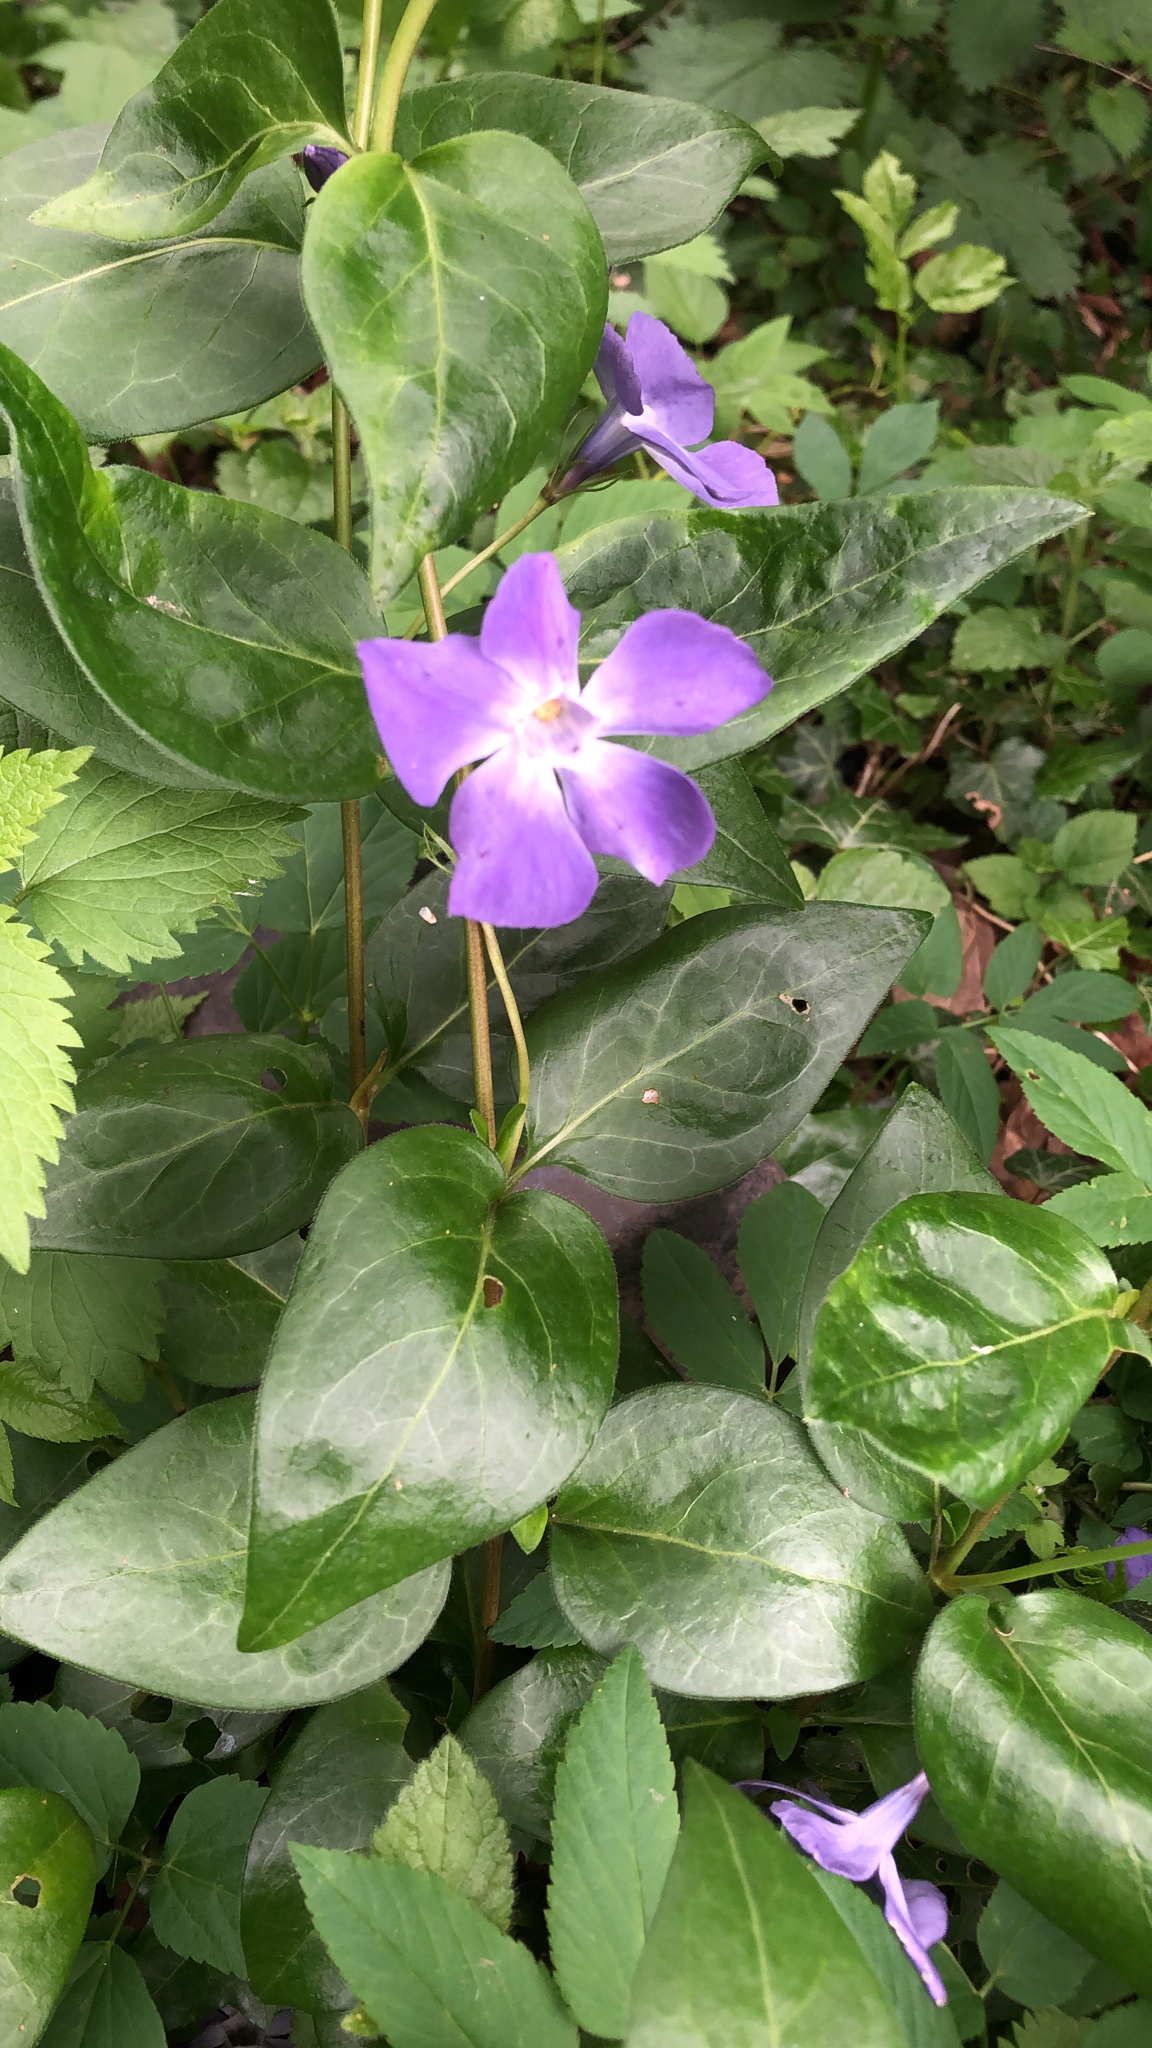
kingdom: Plantae
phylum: Tracheophyta
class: Magnoliopsida
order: Gentianales
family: Apocynaceae
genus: Vinca
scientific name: Vinca major
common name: Greater periwinkle
